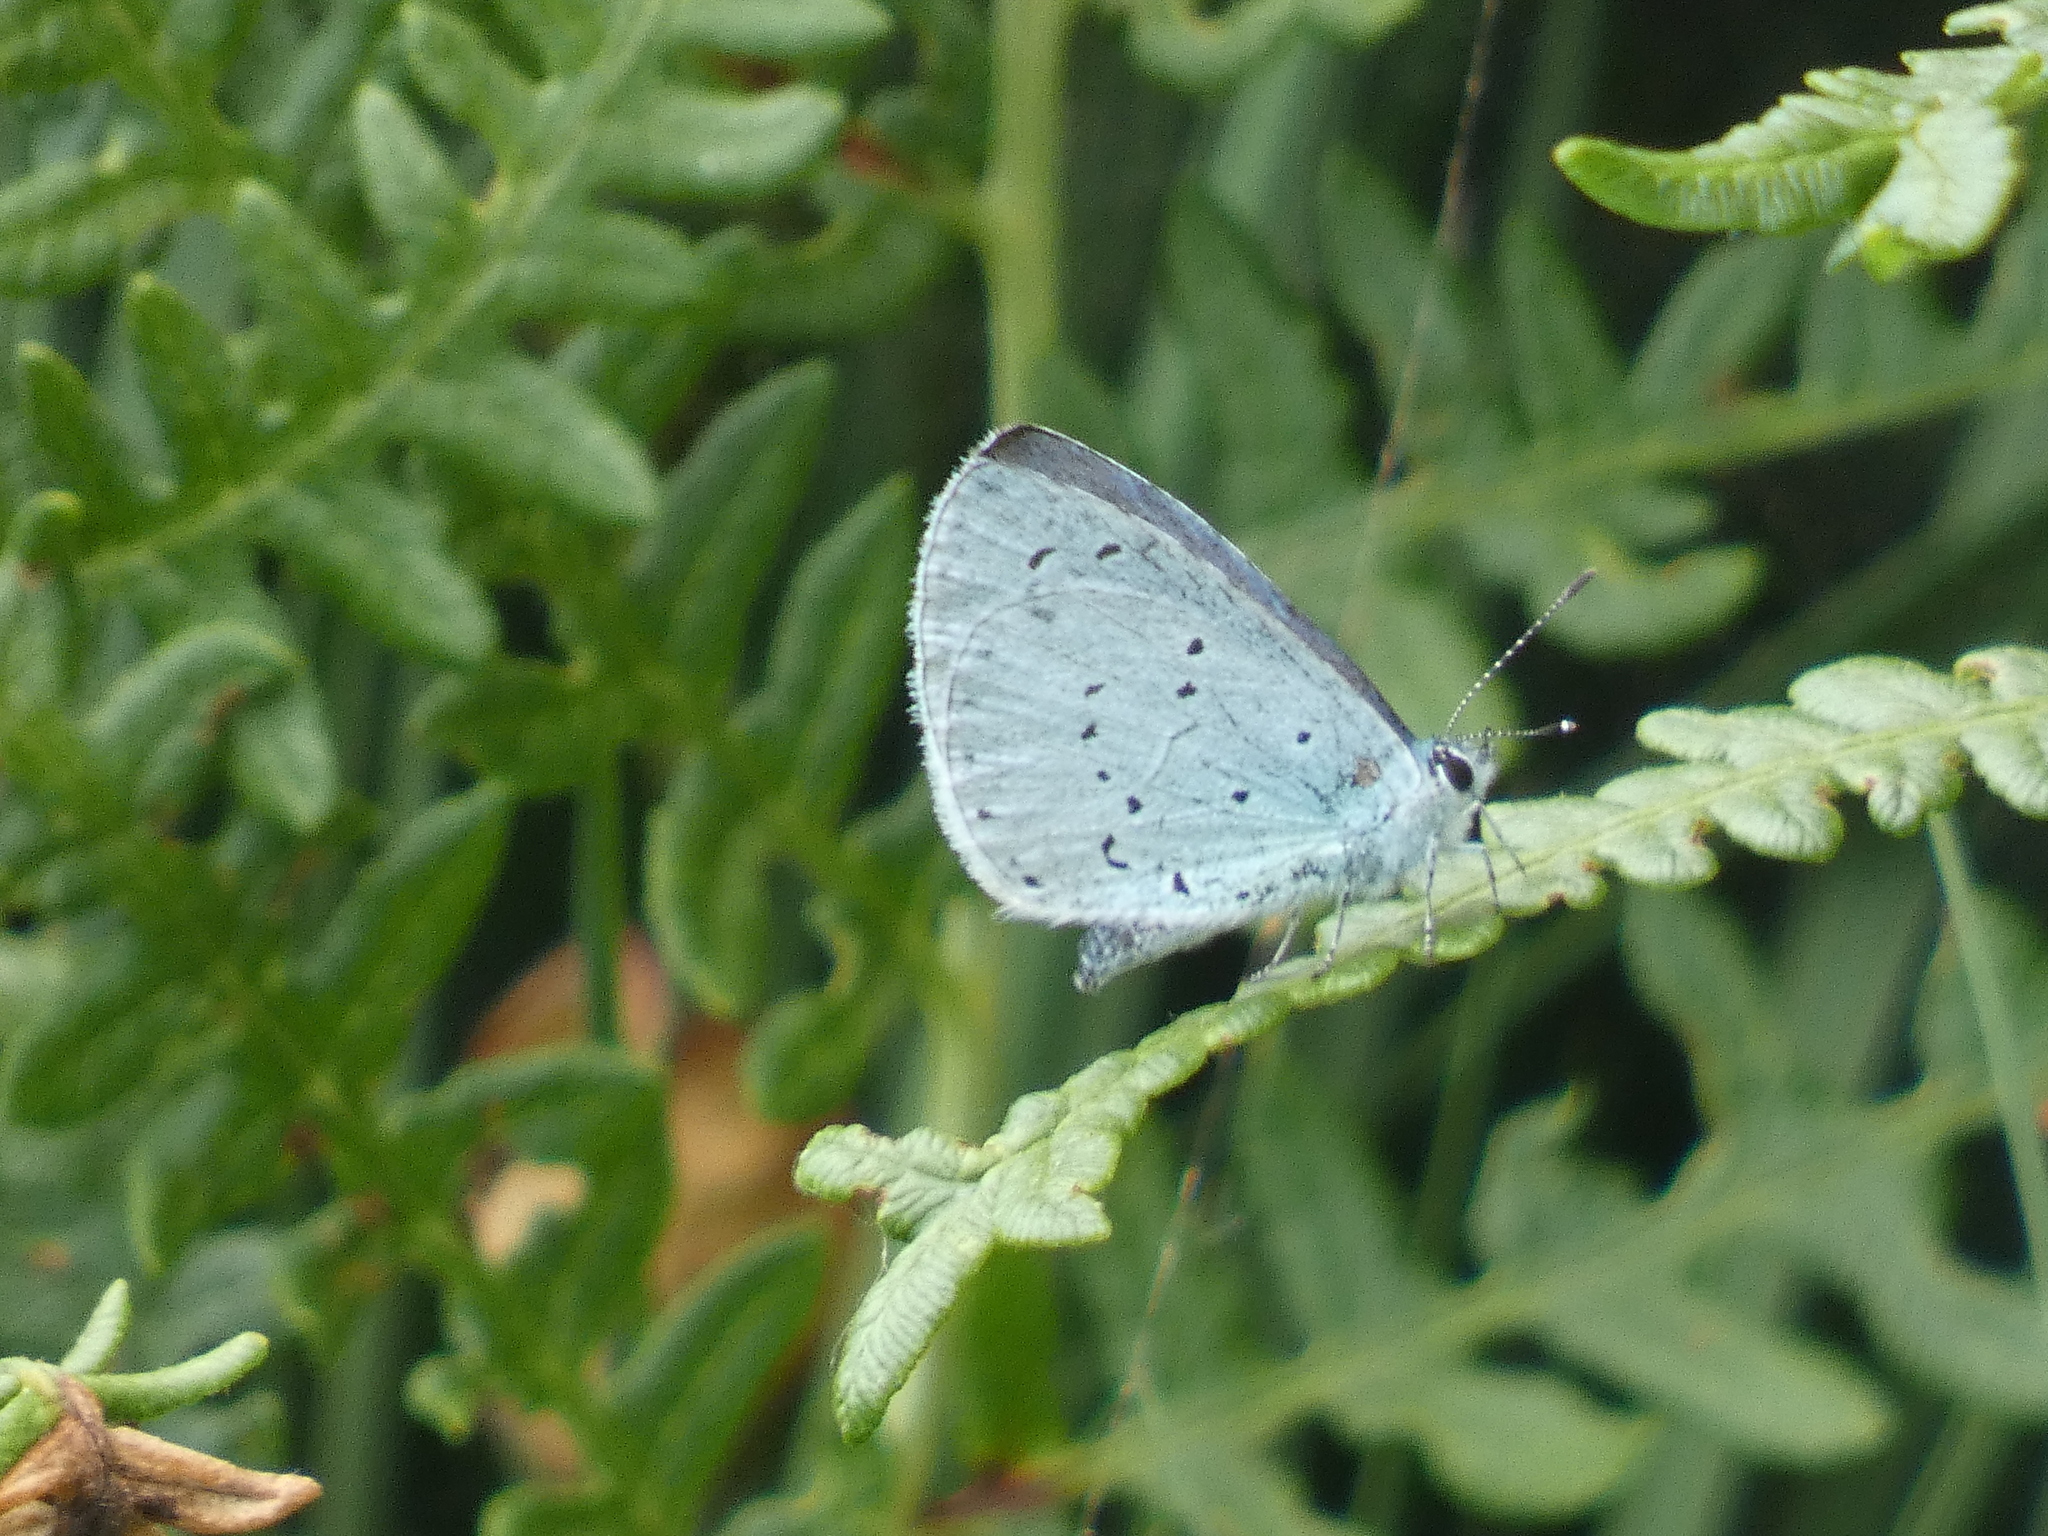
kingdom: Animalia
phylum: Arthropoda
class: Insecta
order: Lepidoptera
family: Lycaenidae
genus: Celastrina
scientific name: Celastrina argiolus
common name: Holly blue
